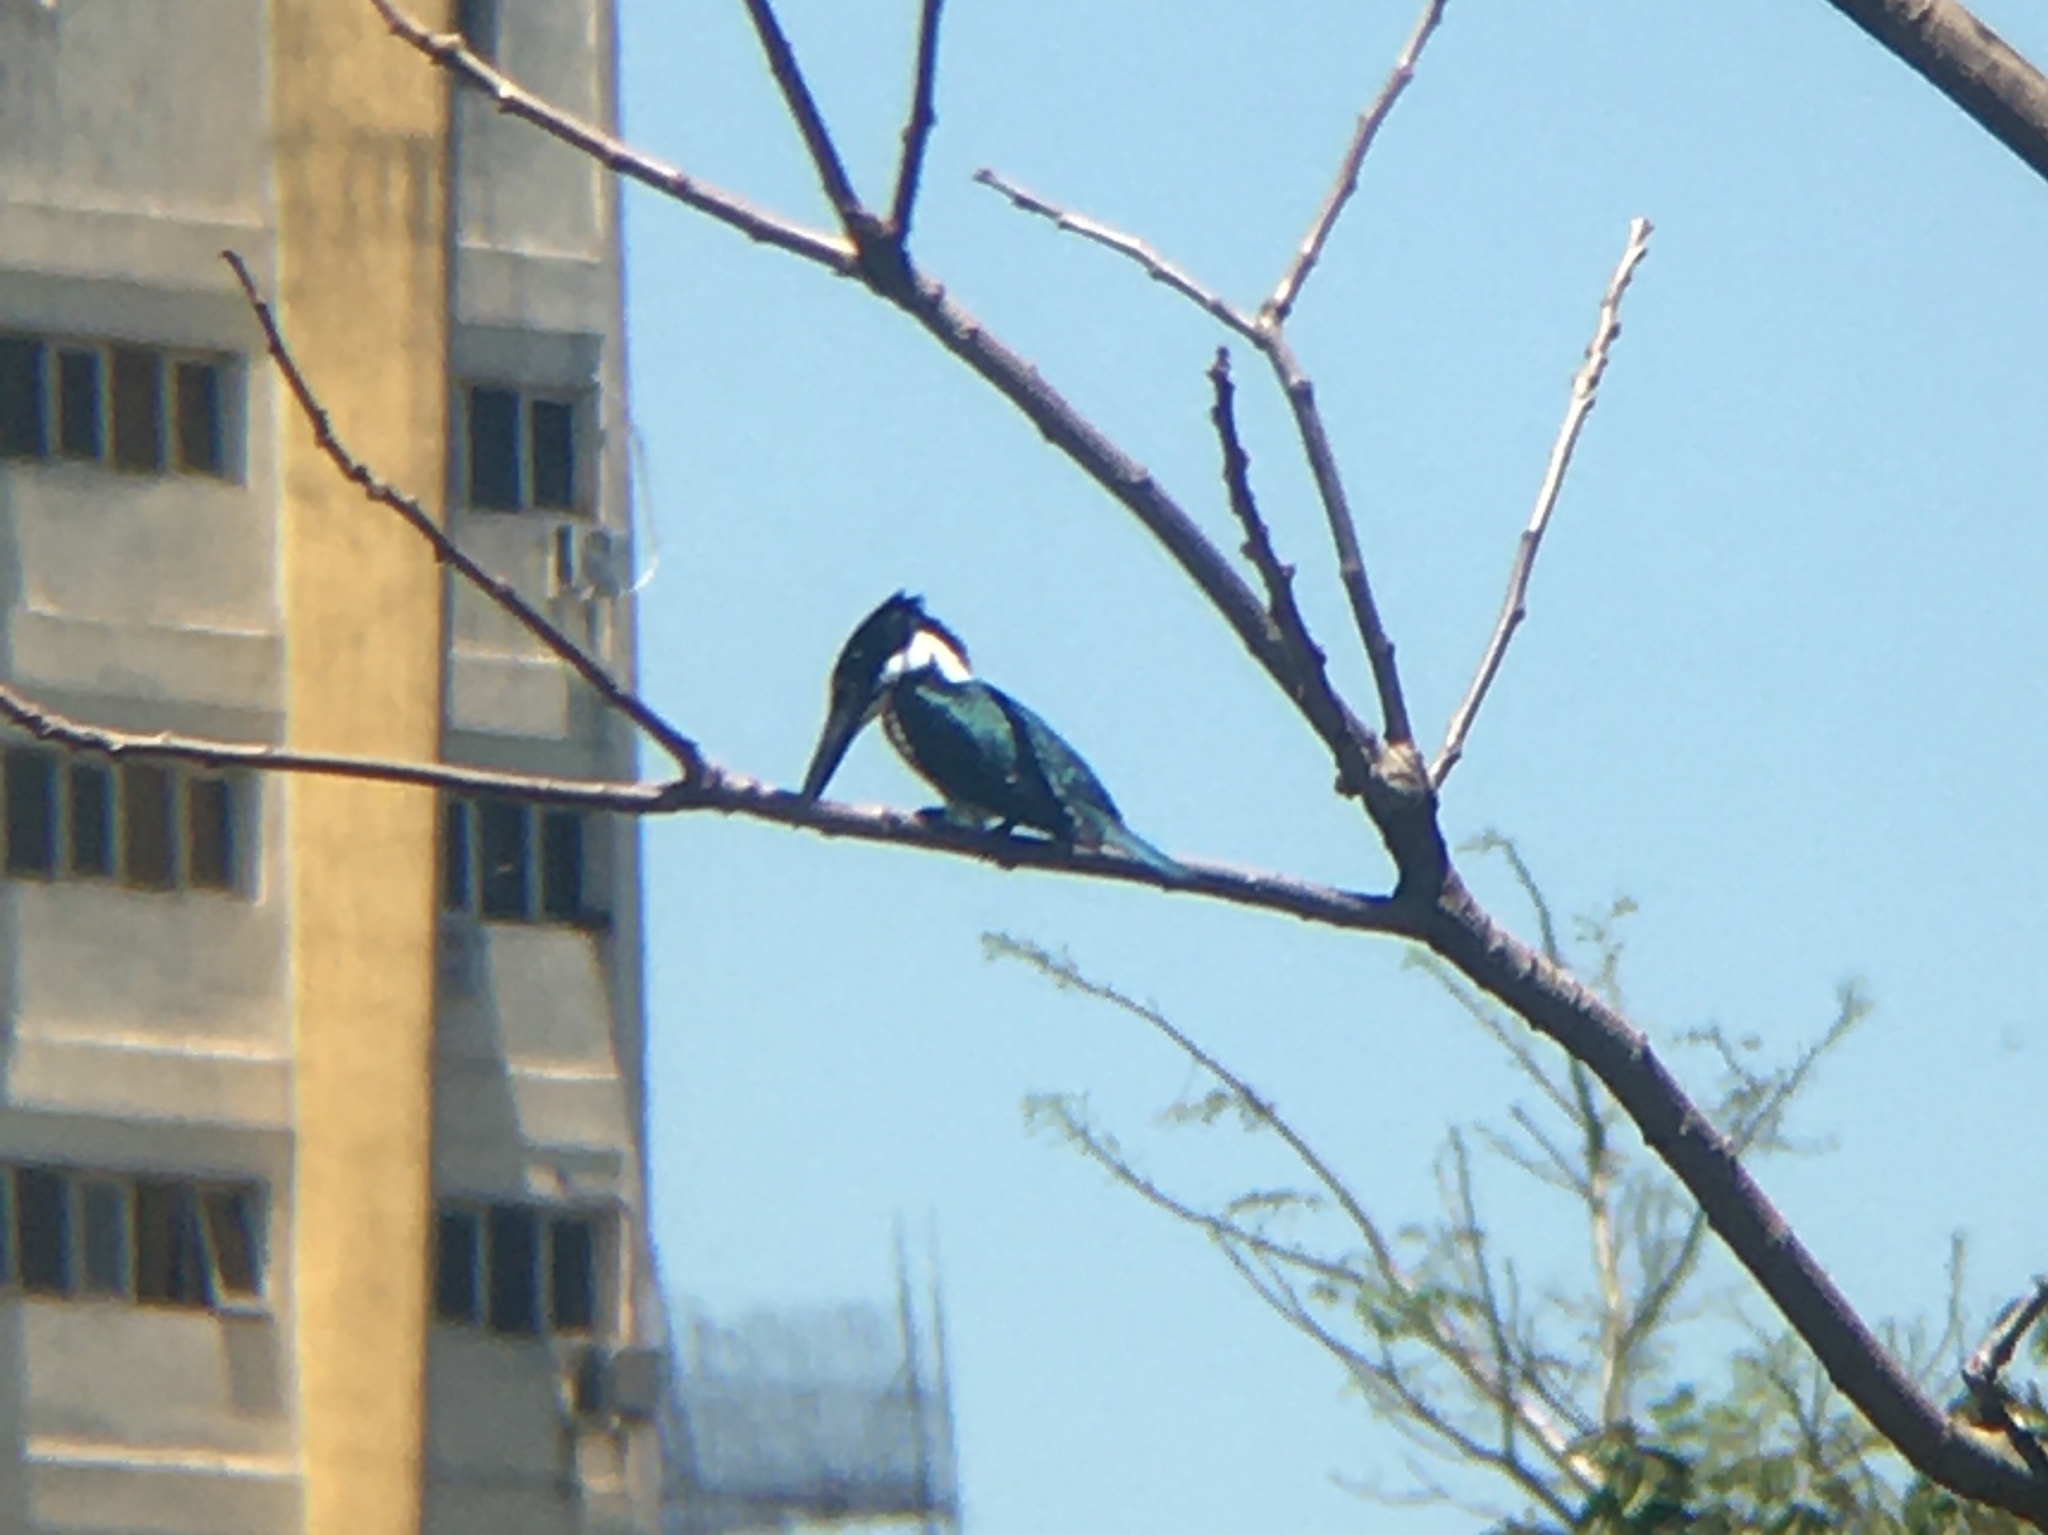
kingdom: Animalia
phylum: Chordata
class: Aves
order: Coraciiformes
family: Alcedinidae
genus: Chloroceryle
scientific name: Chloroceryle amazona
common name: Amazon kingfisher
